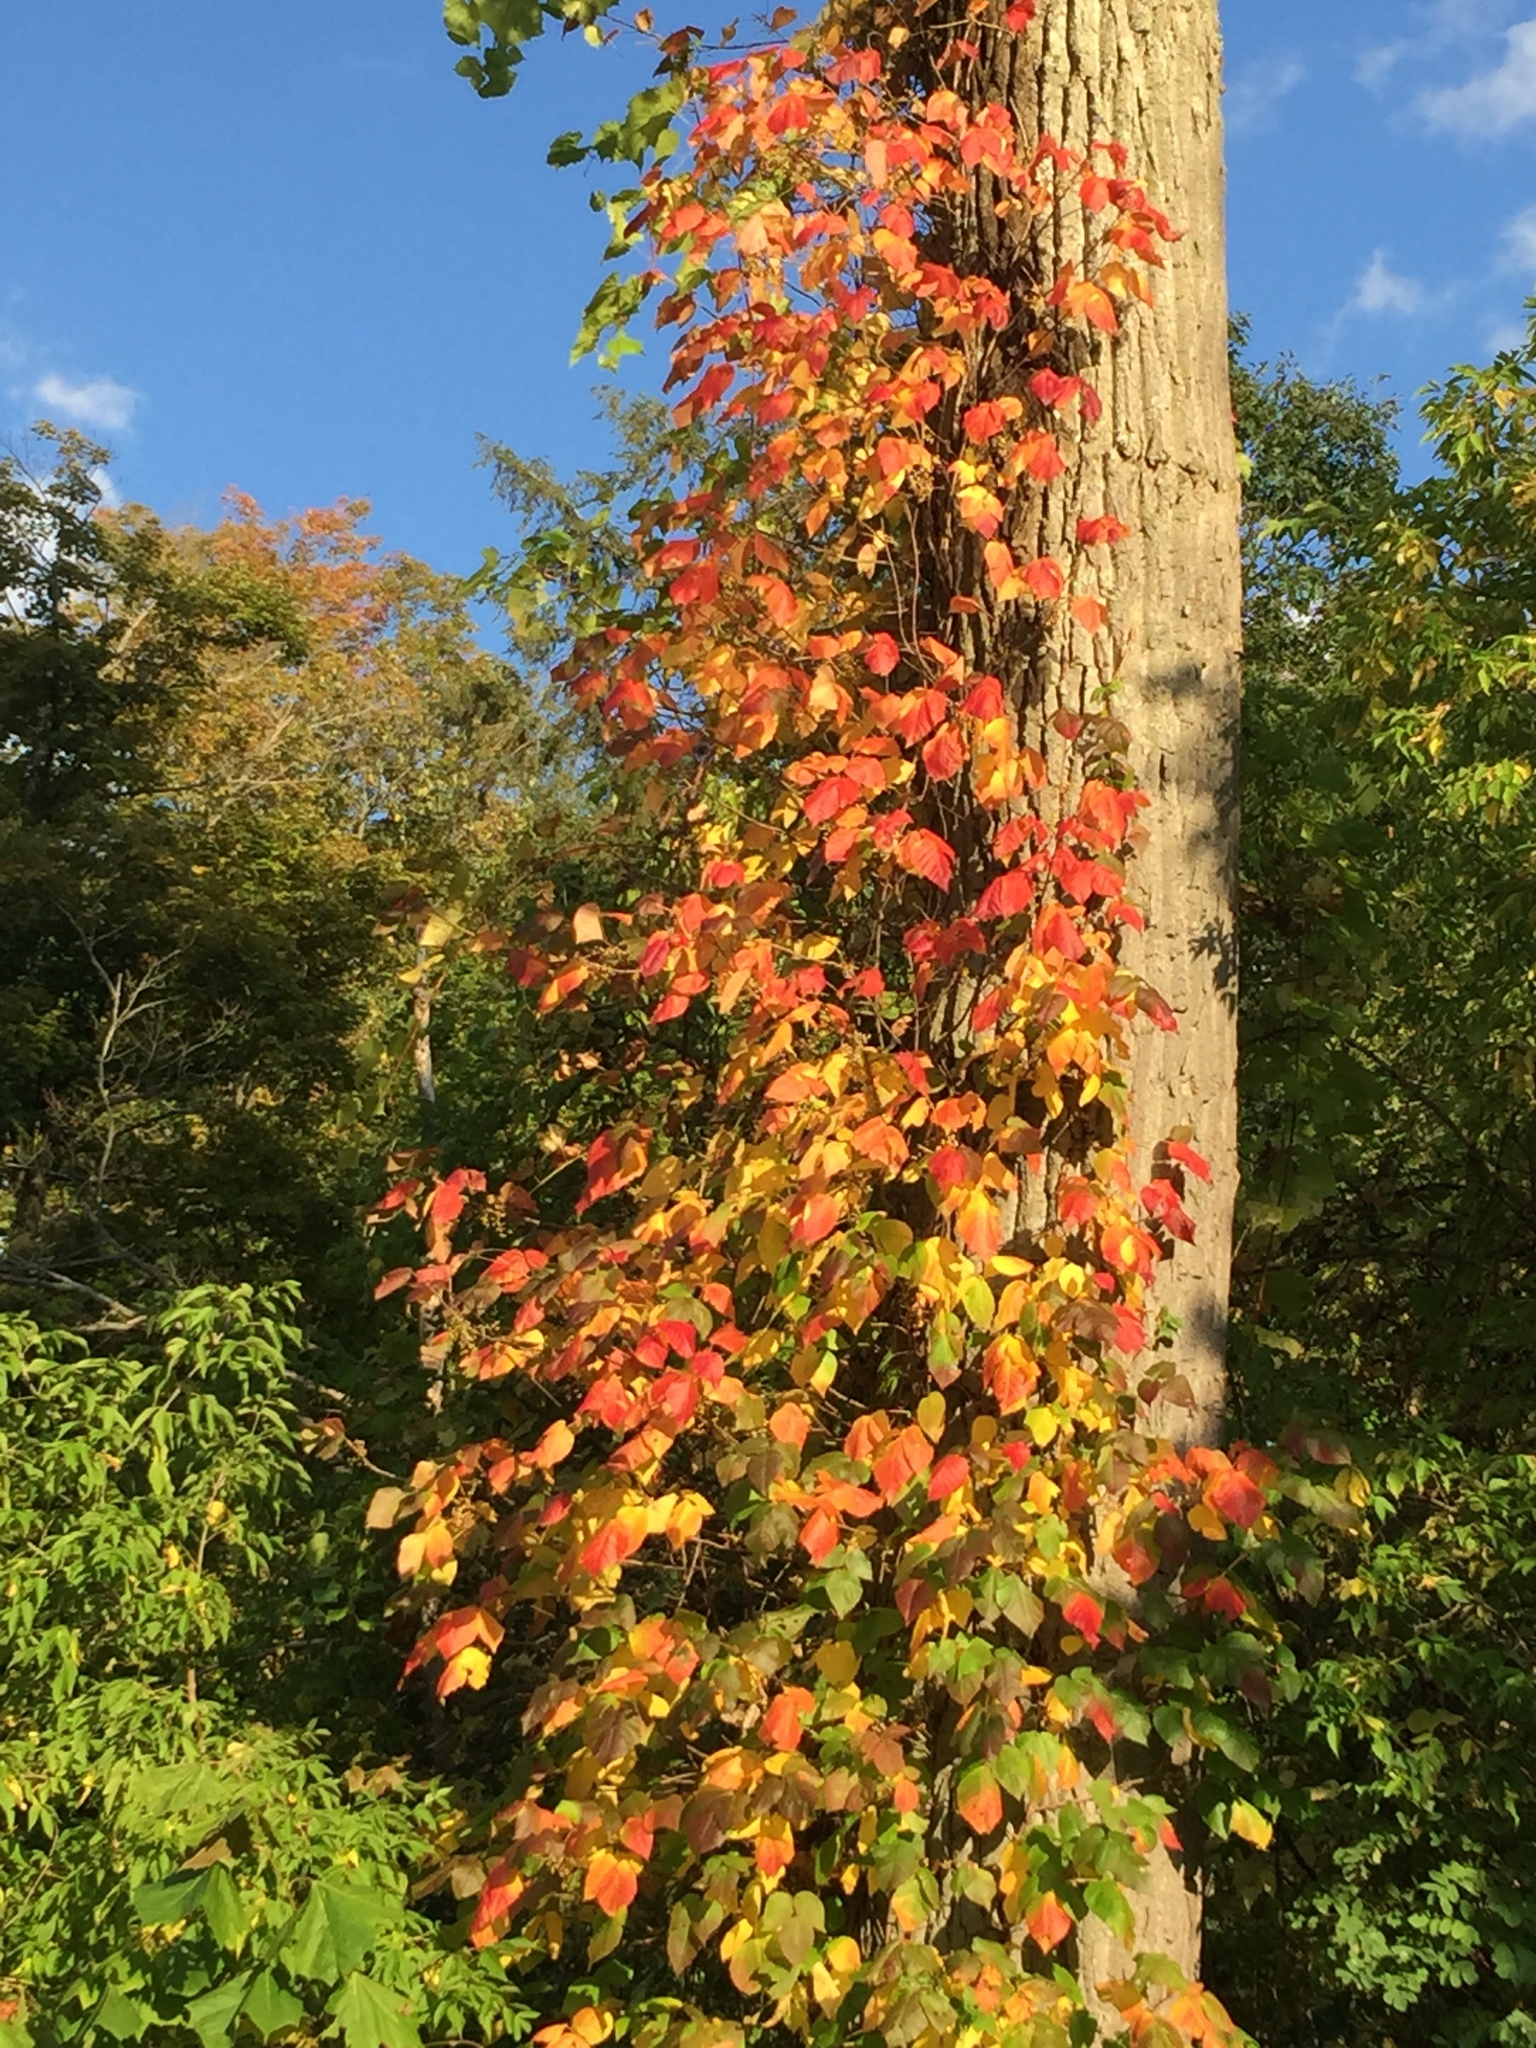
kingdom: Plantae
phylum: Tracheophyta
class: Magnoliopsida
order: Sapindales
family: Anacardiaceae
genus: Toxicodendron
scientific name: Toxicodendron radicans
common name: Poison ivy
